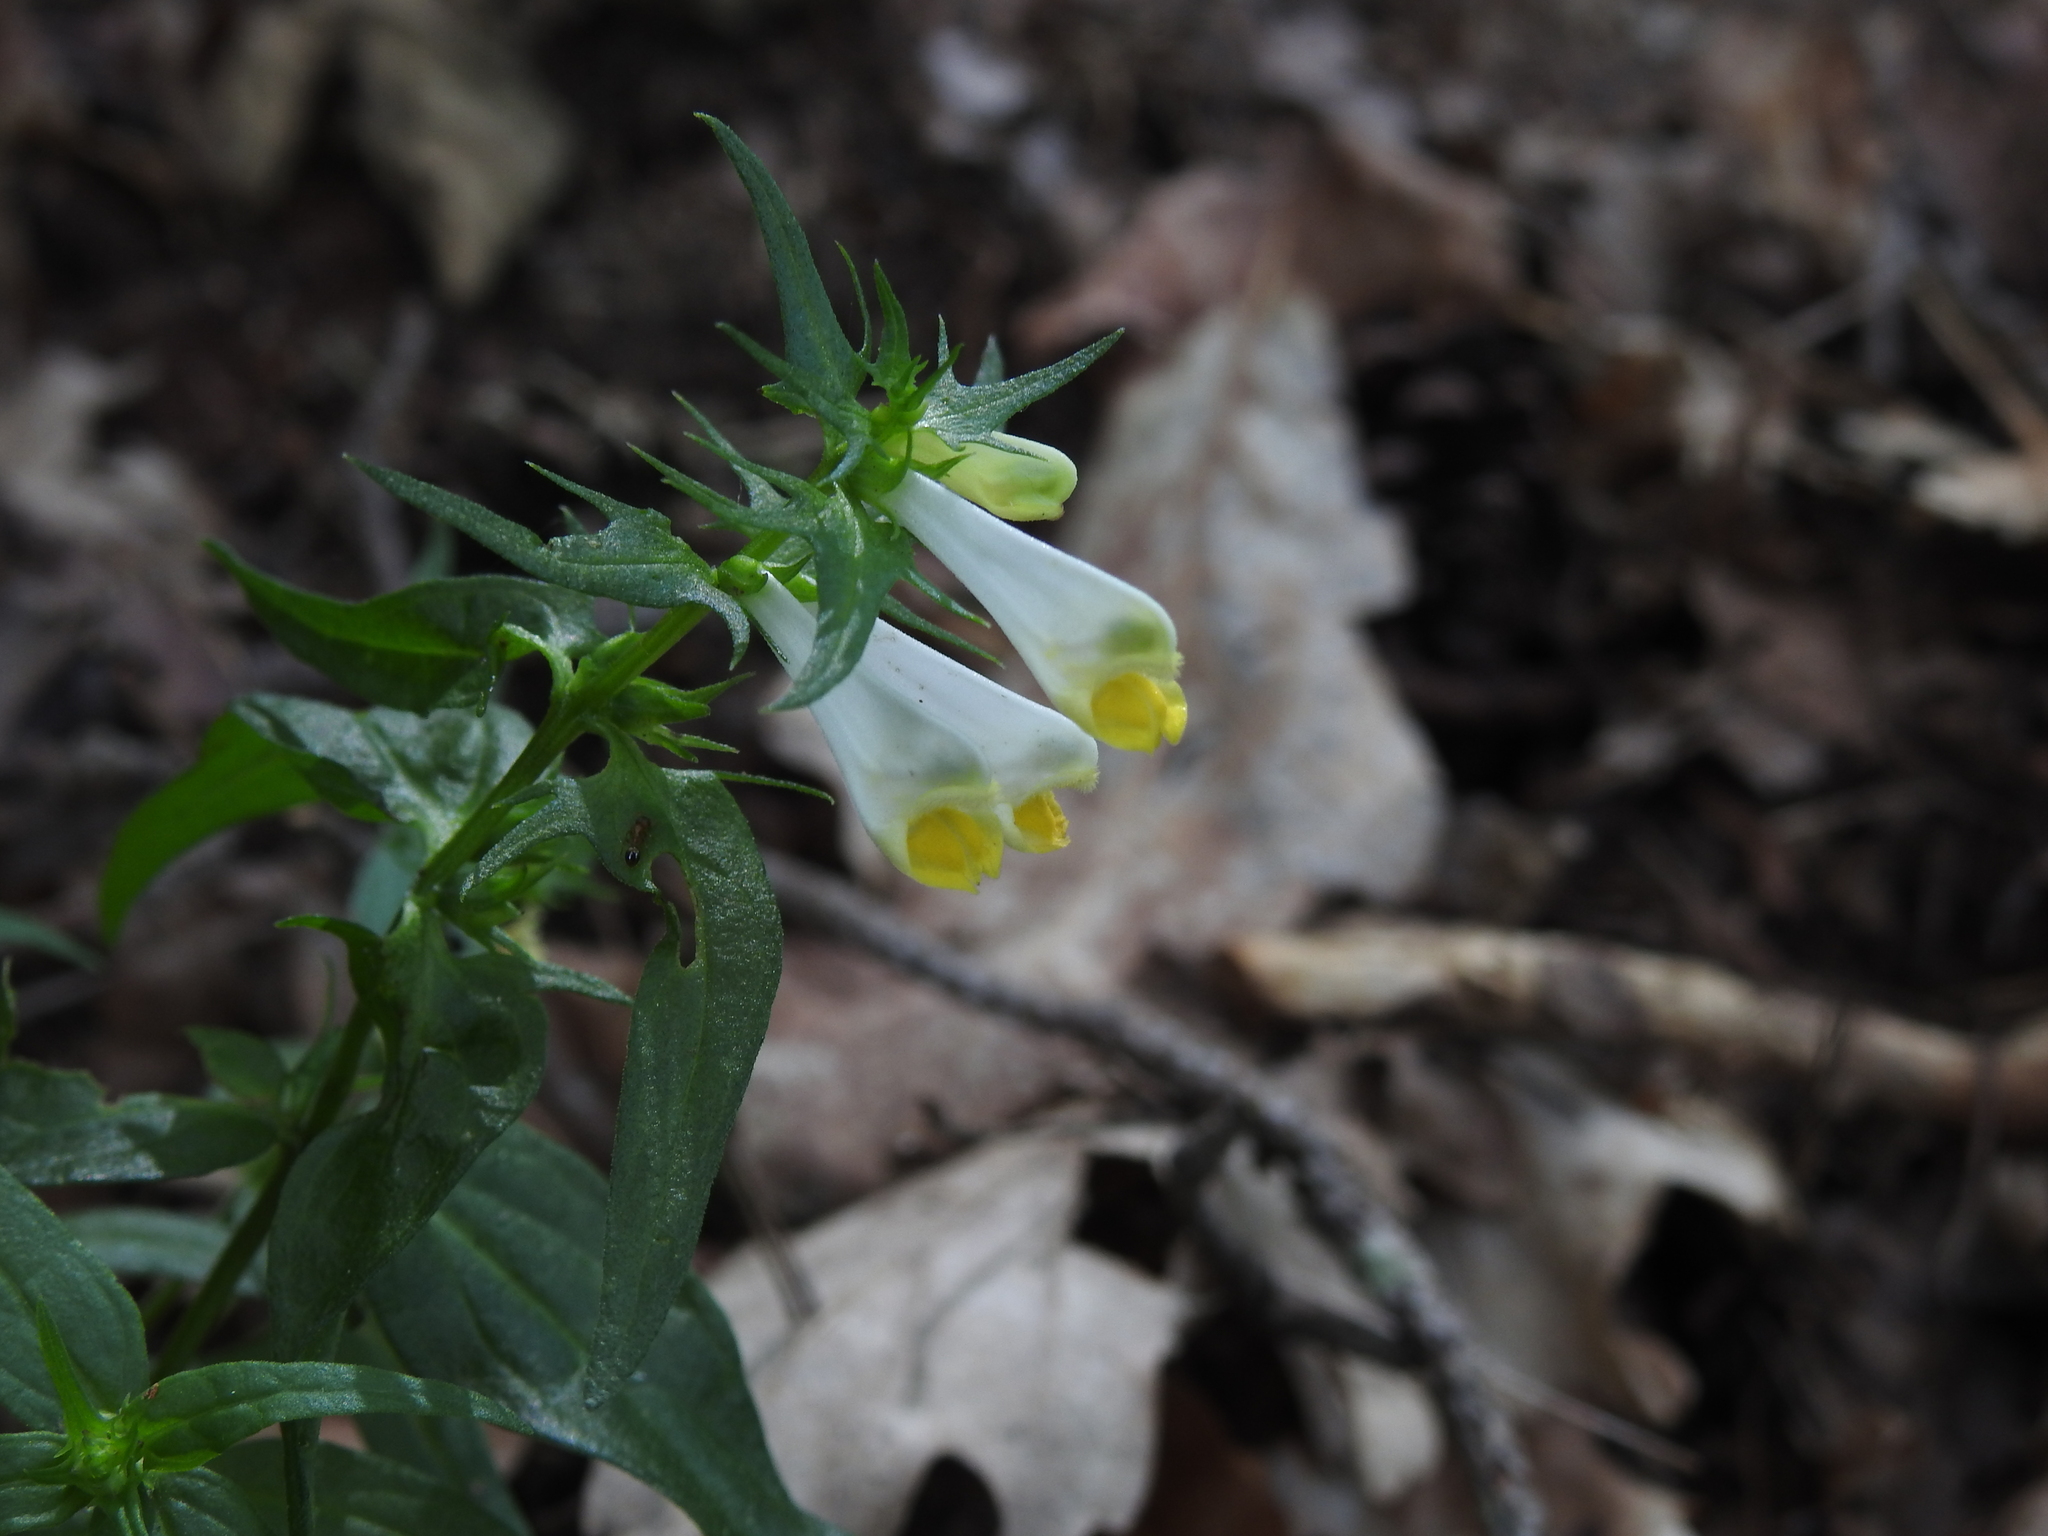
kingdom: Plantae
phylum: Tracheophyta
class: Magnoliopsida
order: Lamiales
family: Orobanchaceae
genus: Melampyrum
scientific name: Melampyrum pratense
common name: Common cow-wheat
